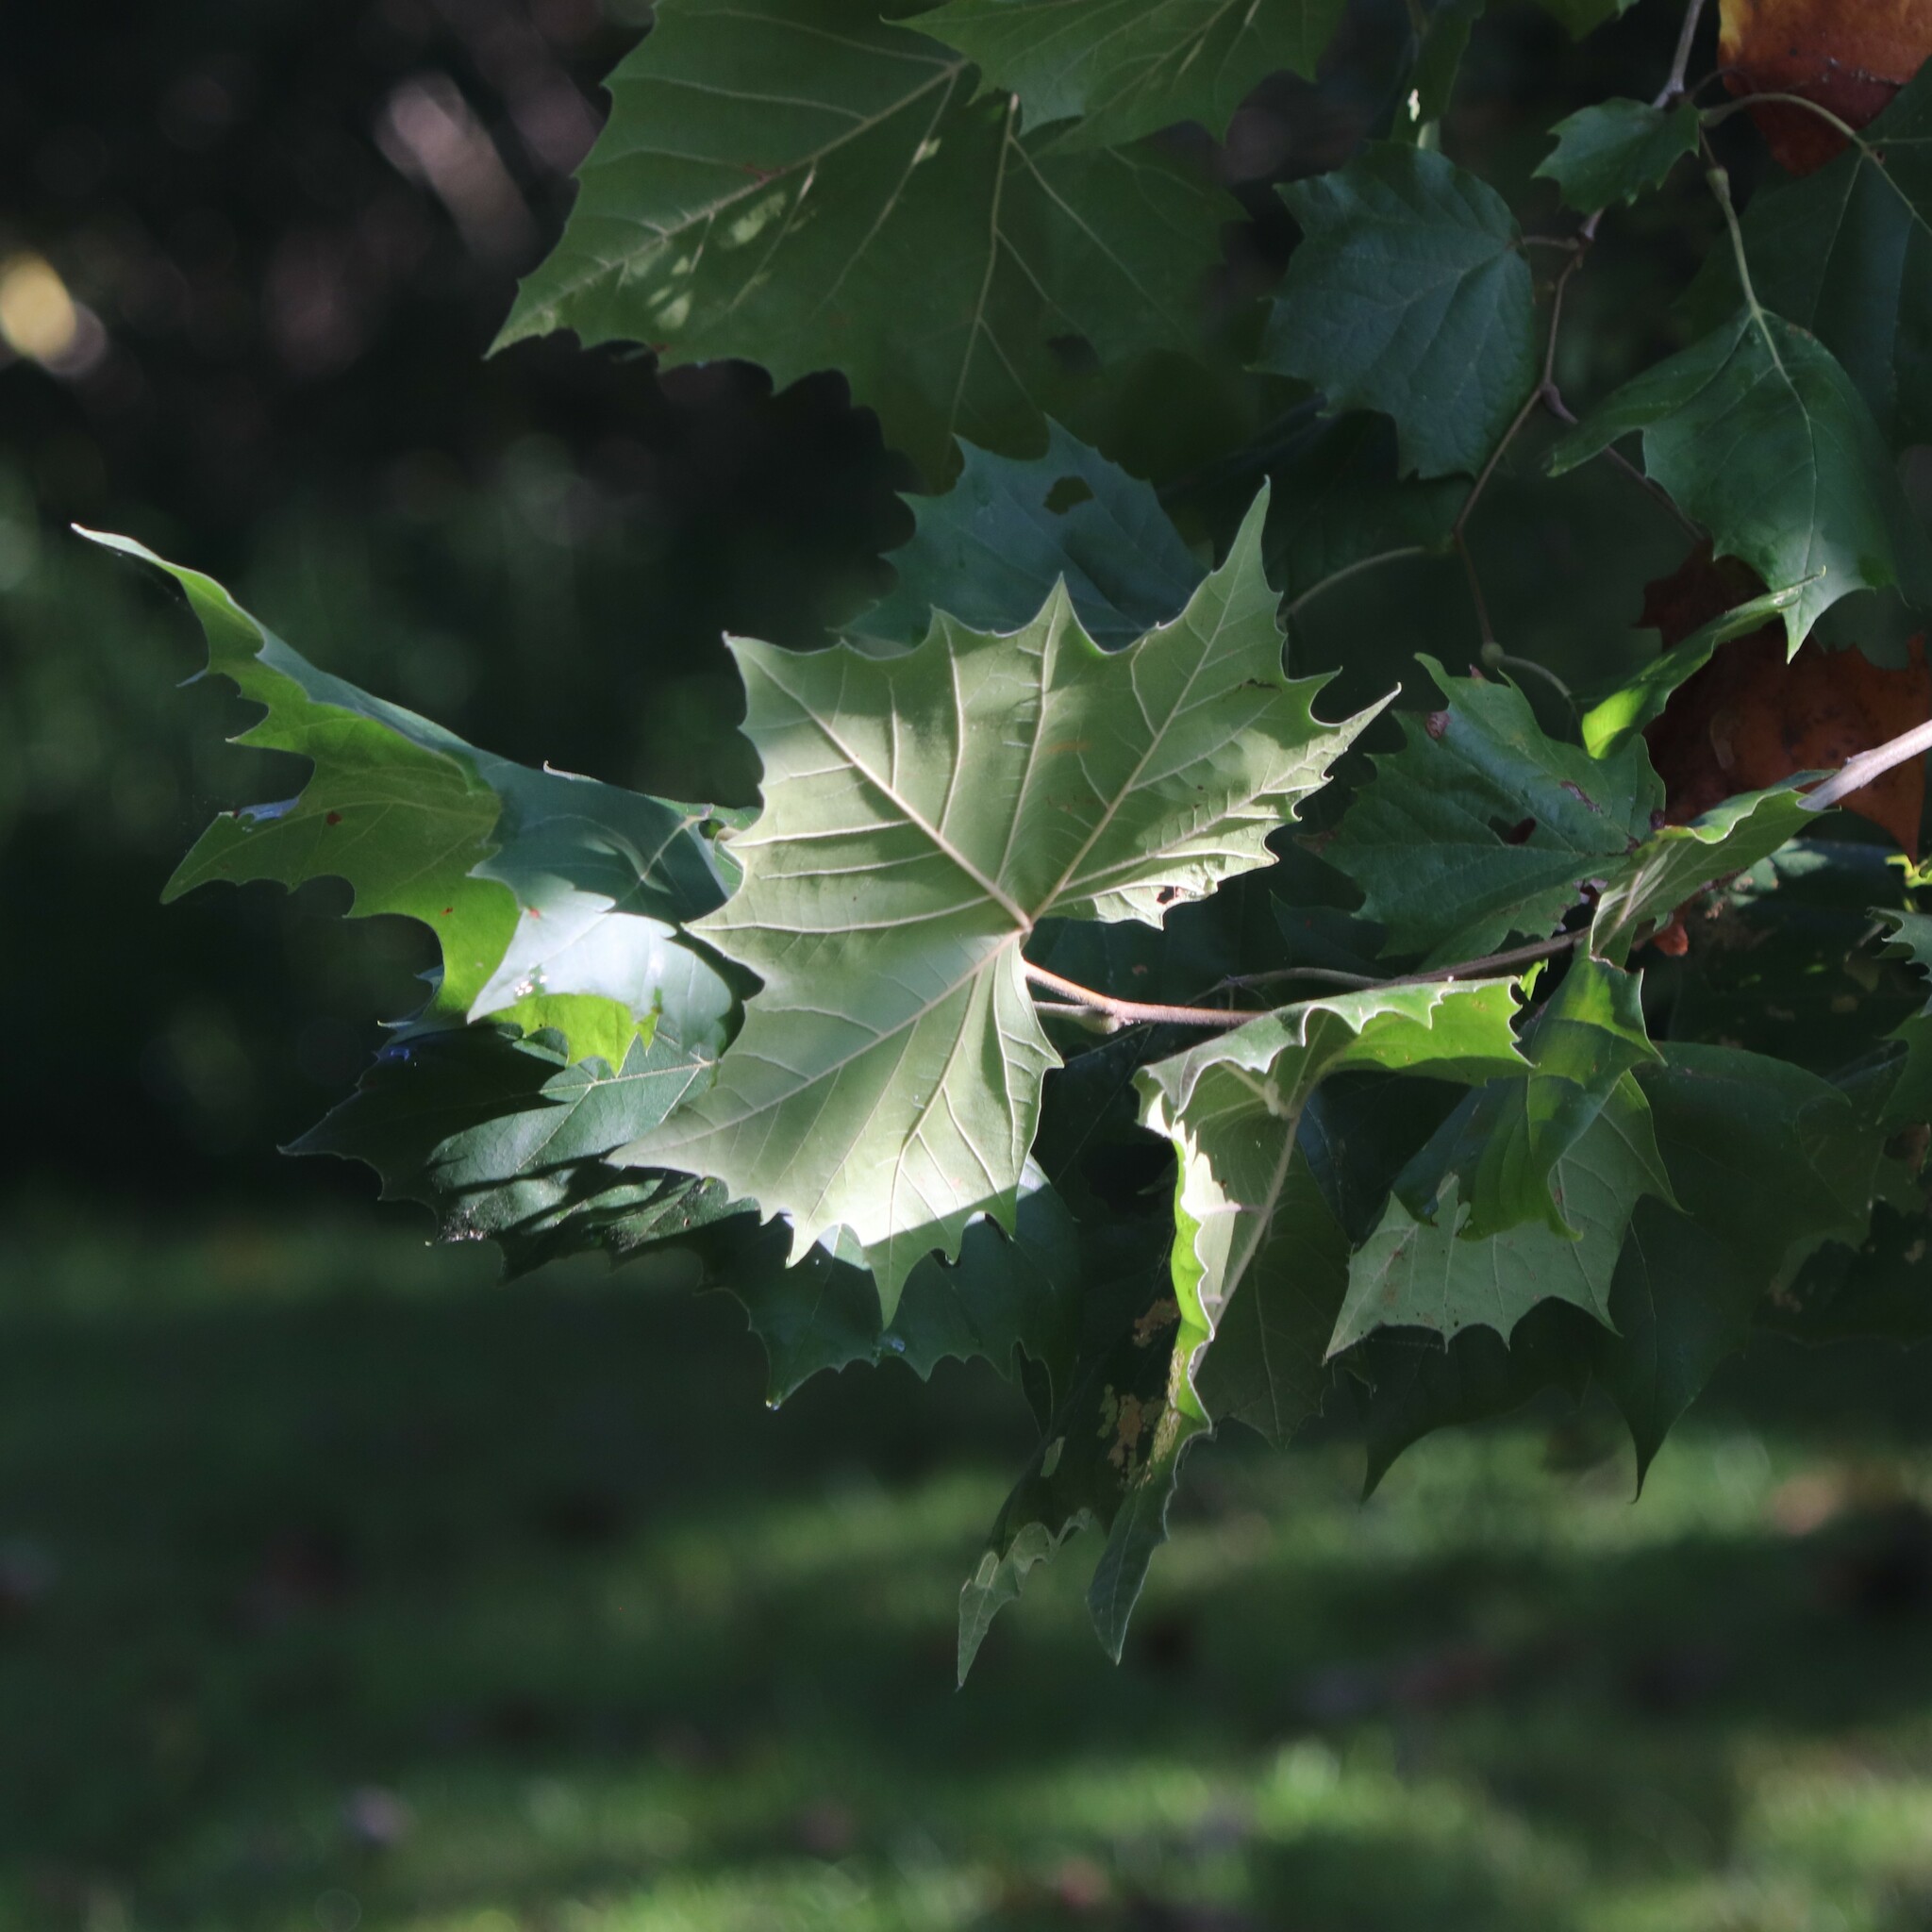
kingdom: Plantae
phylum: Tracheophyta
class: Magnoliopsida
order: Proteales
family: Platanaceae
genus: Platanus
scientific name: Platanus occidentalis
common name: American sycamore
